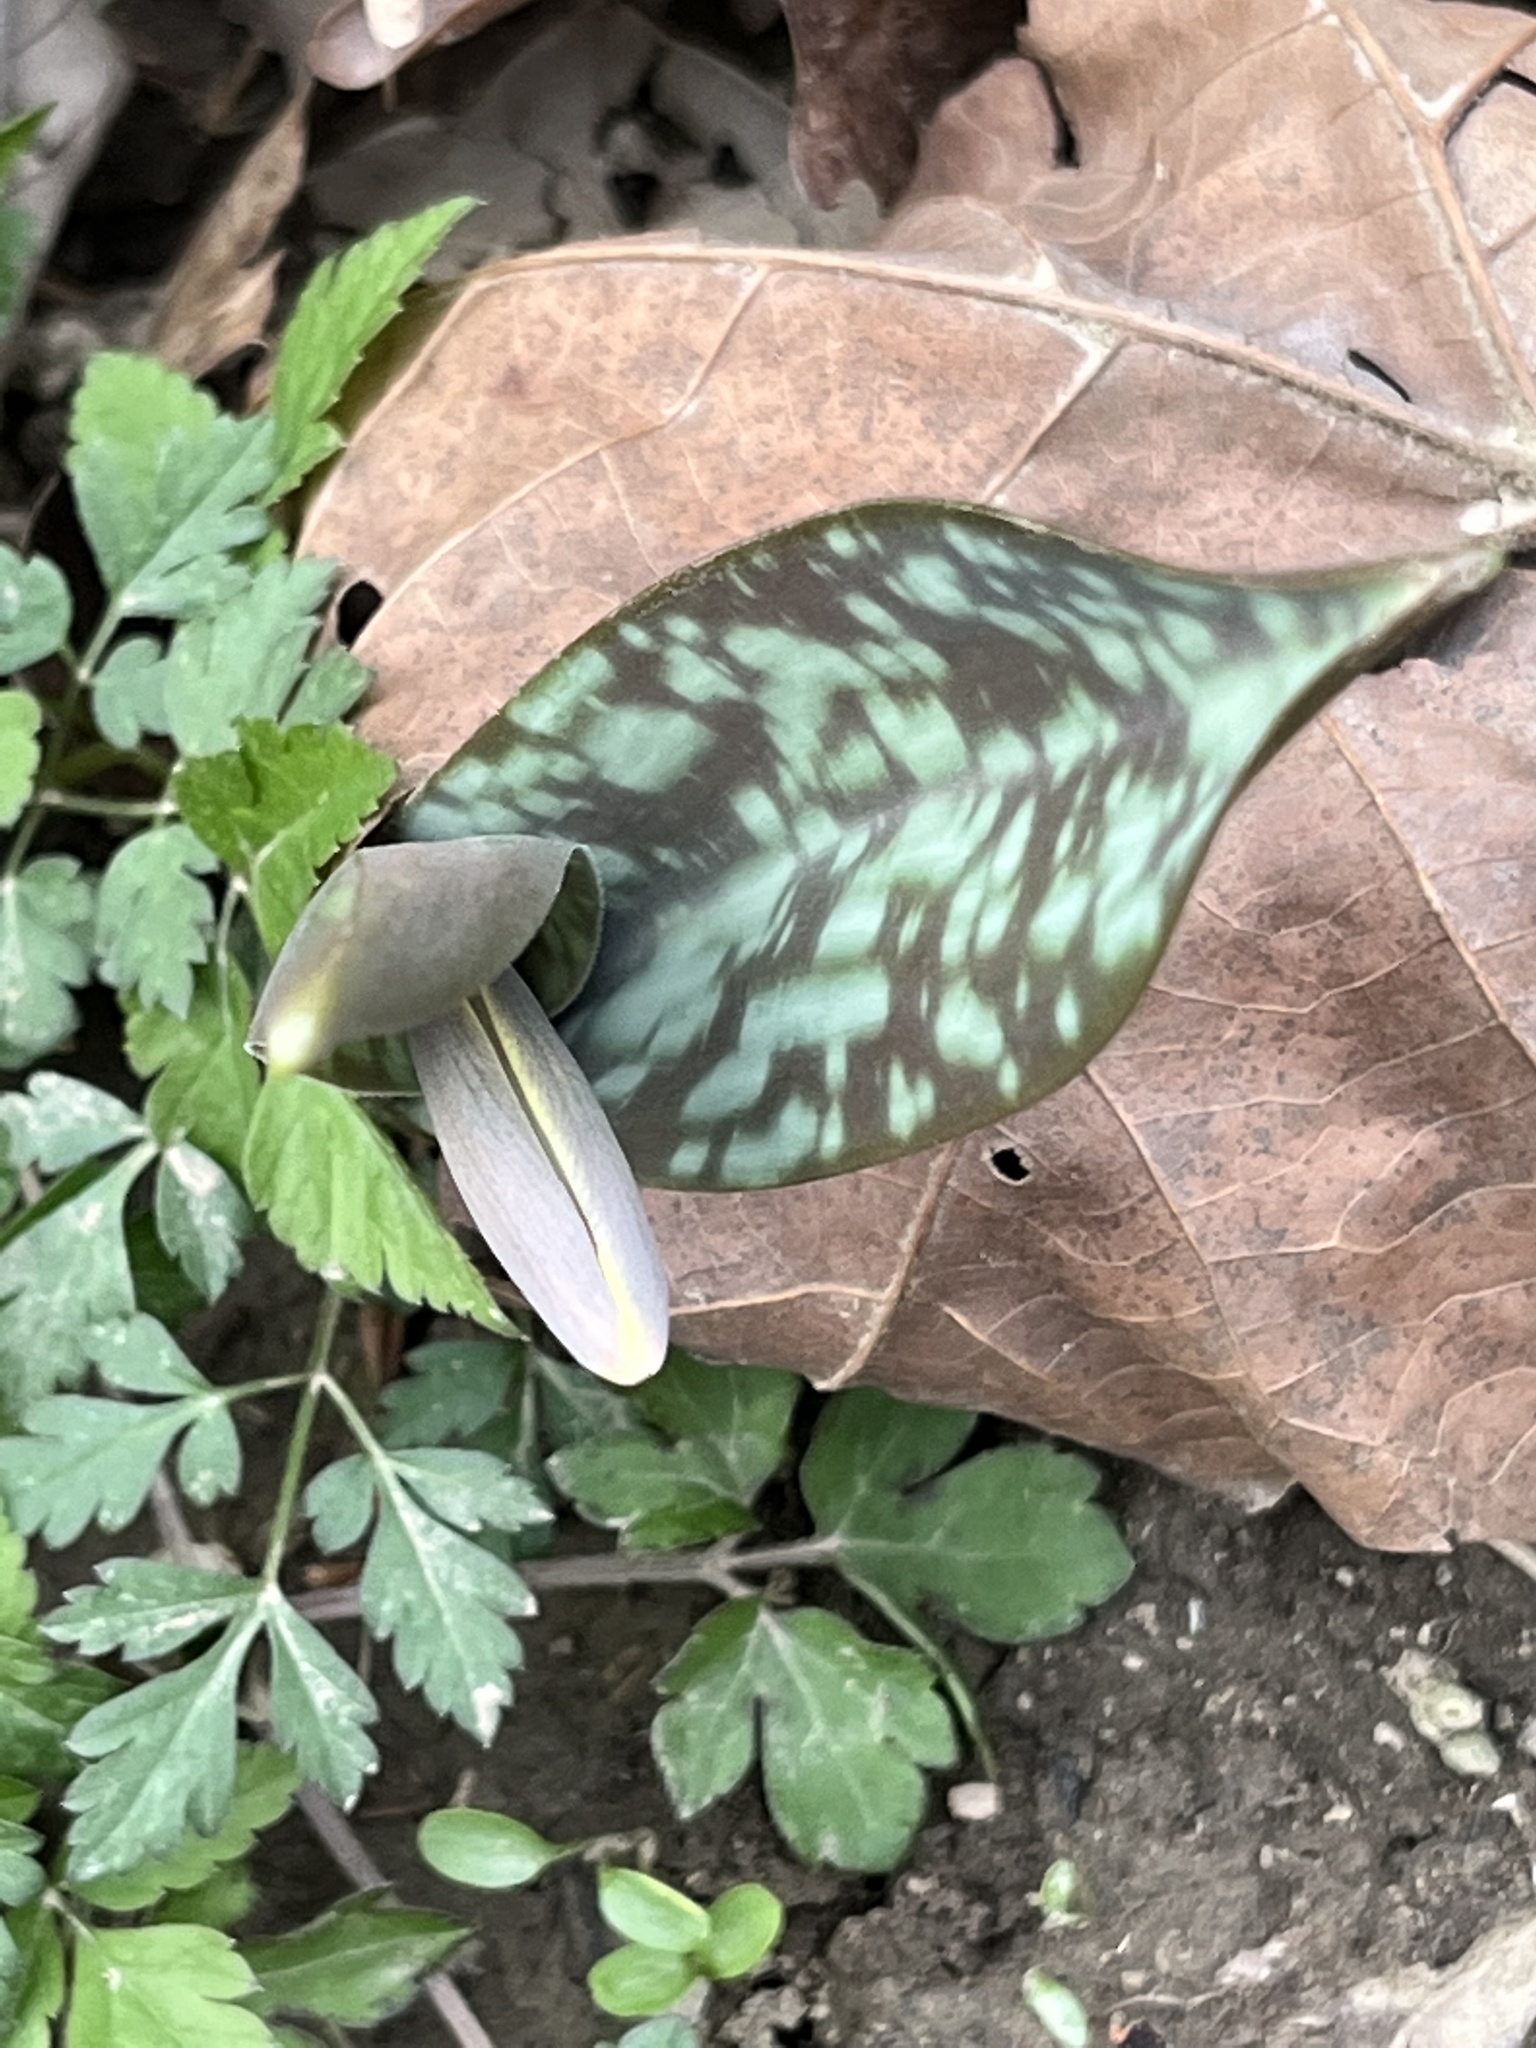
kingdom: Plantae
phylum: Tracheophyta
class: Liliopsida
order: Liliales
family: Liliaceae
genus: Erythronium
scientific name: Erythronium albidum
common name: White trout-lily
